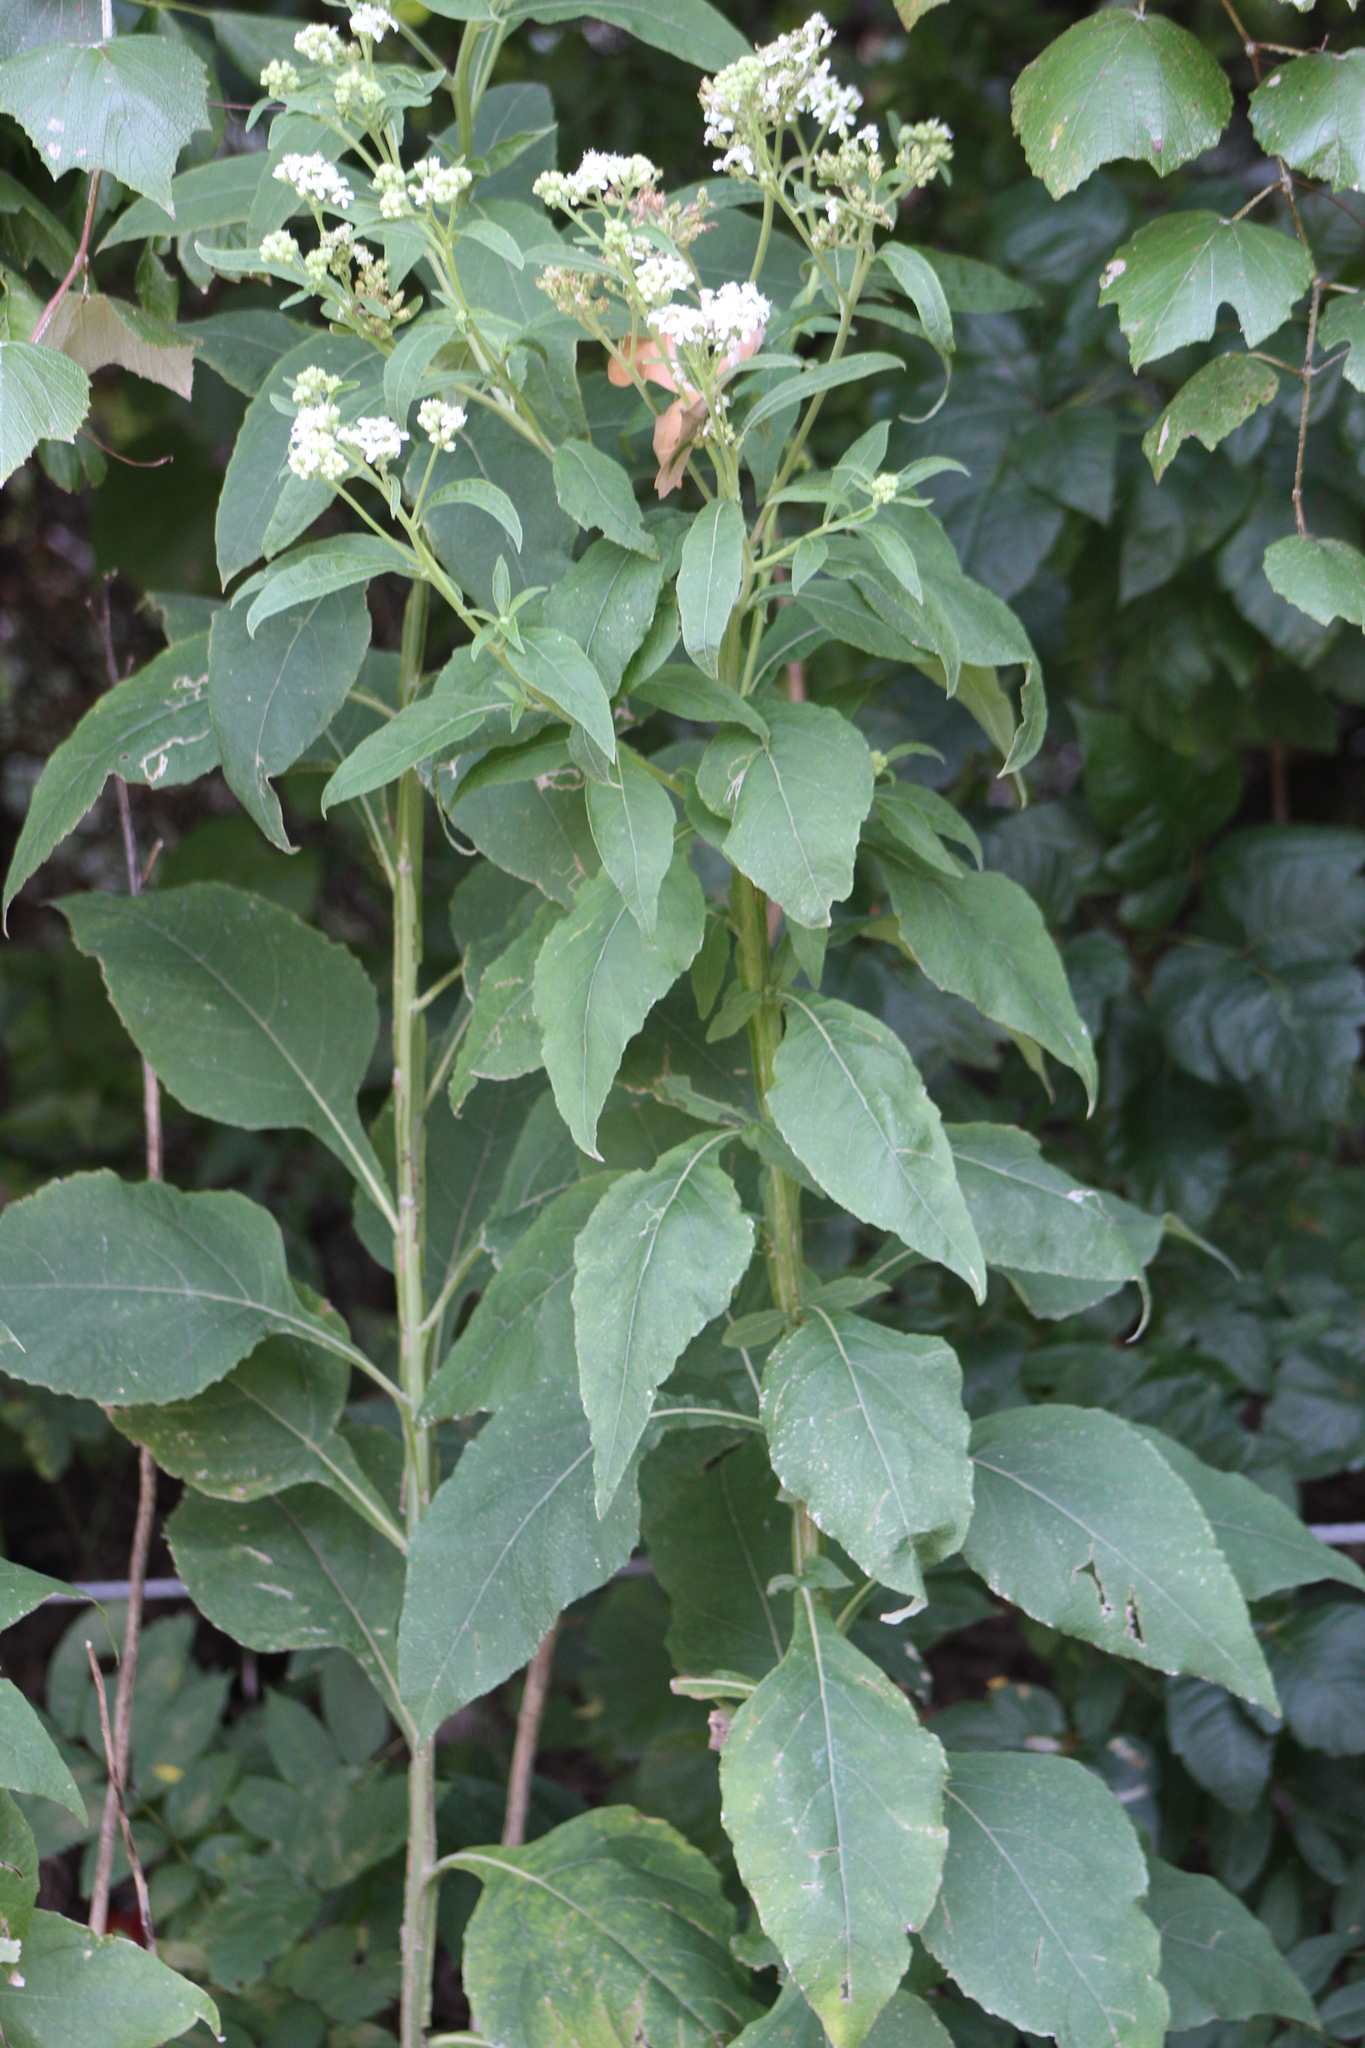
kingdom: Plantae
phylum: Tracheophyta
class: Magnoliopsida
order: Asterales
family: Asteraceae
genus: Verbesina
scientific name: Verbesina virginica
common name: Frostweed
